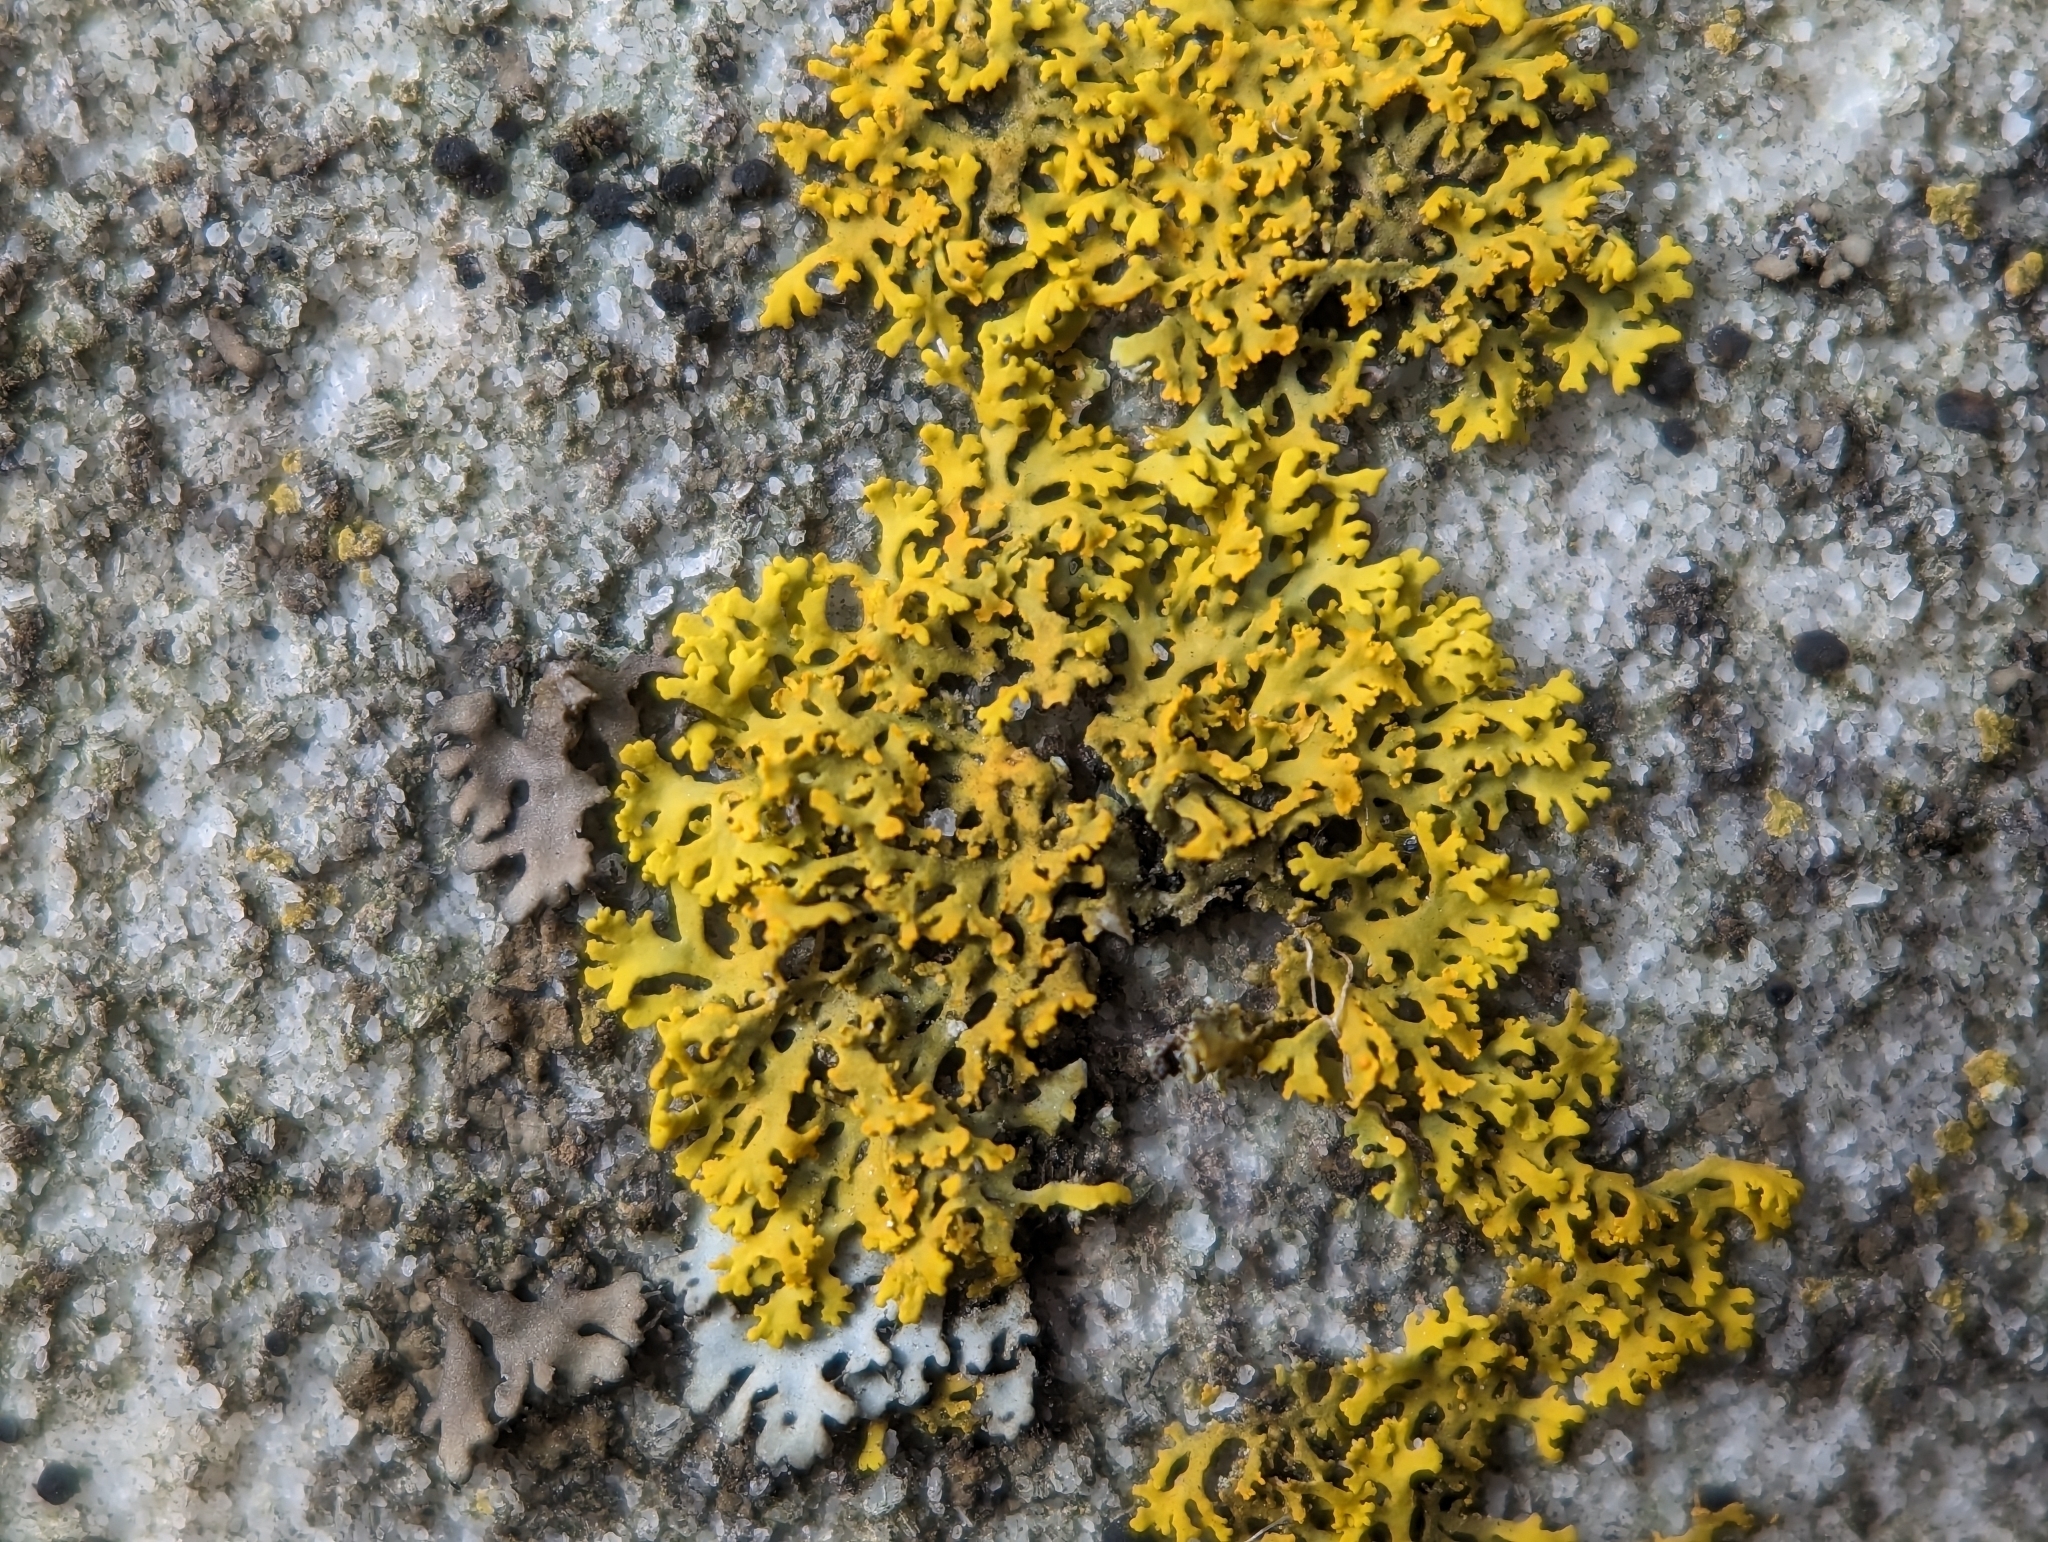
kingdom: Fungi
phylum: Ascomycota
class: Lecanoromycetes
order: Teloschistales
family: Teloschistaceae
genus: Gallowayella
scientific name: Gallowayella weberi
